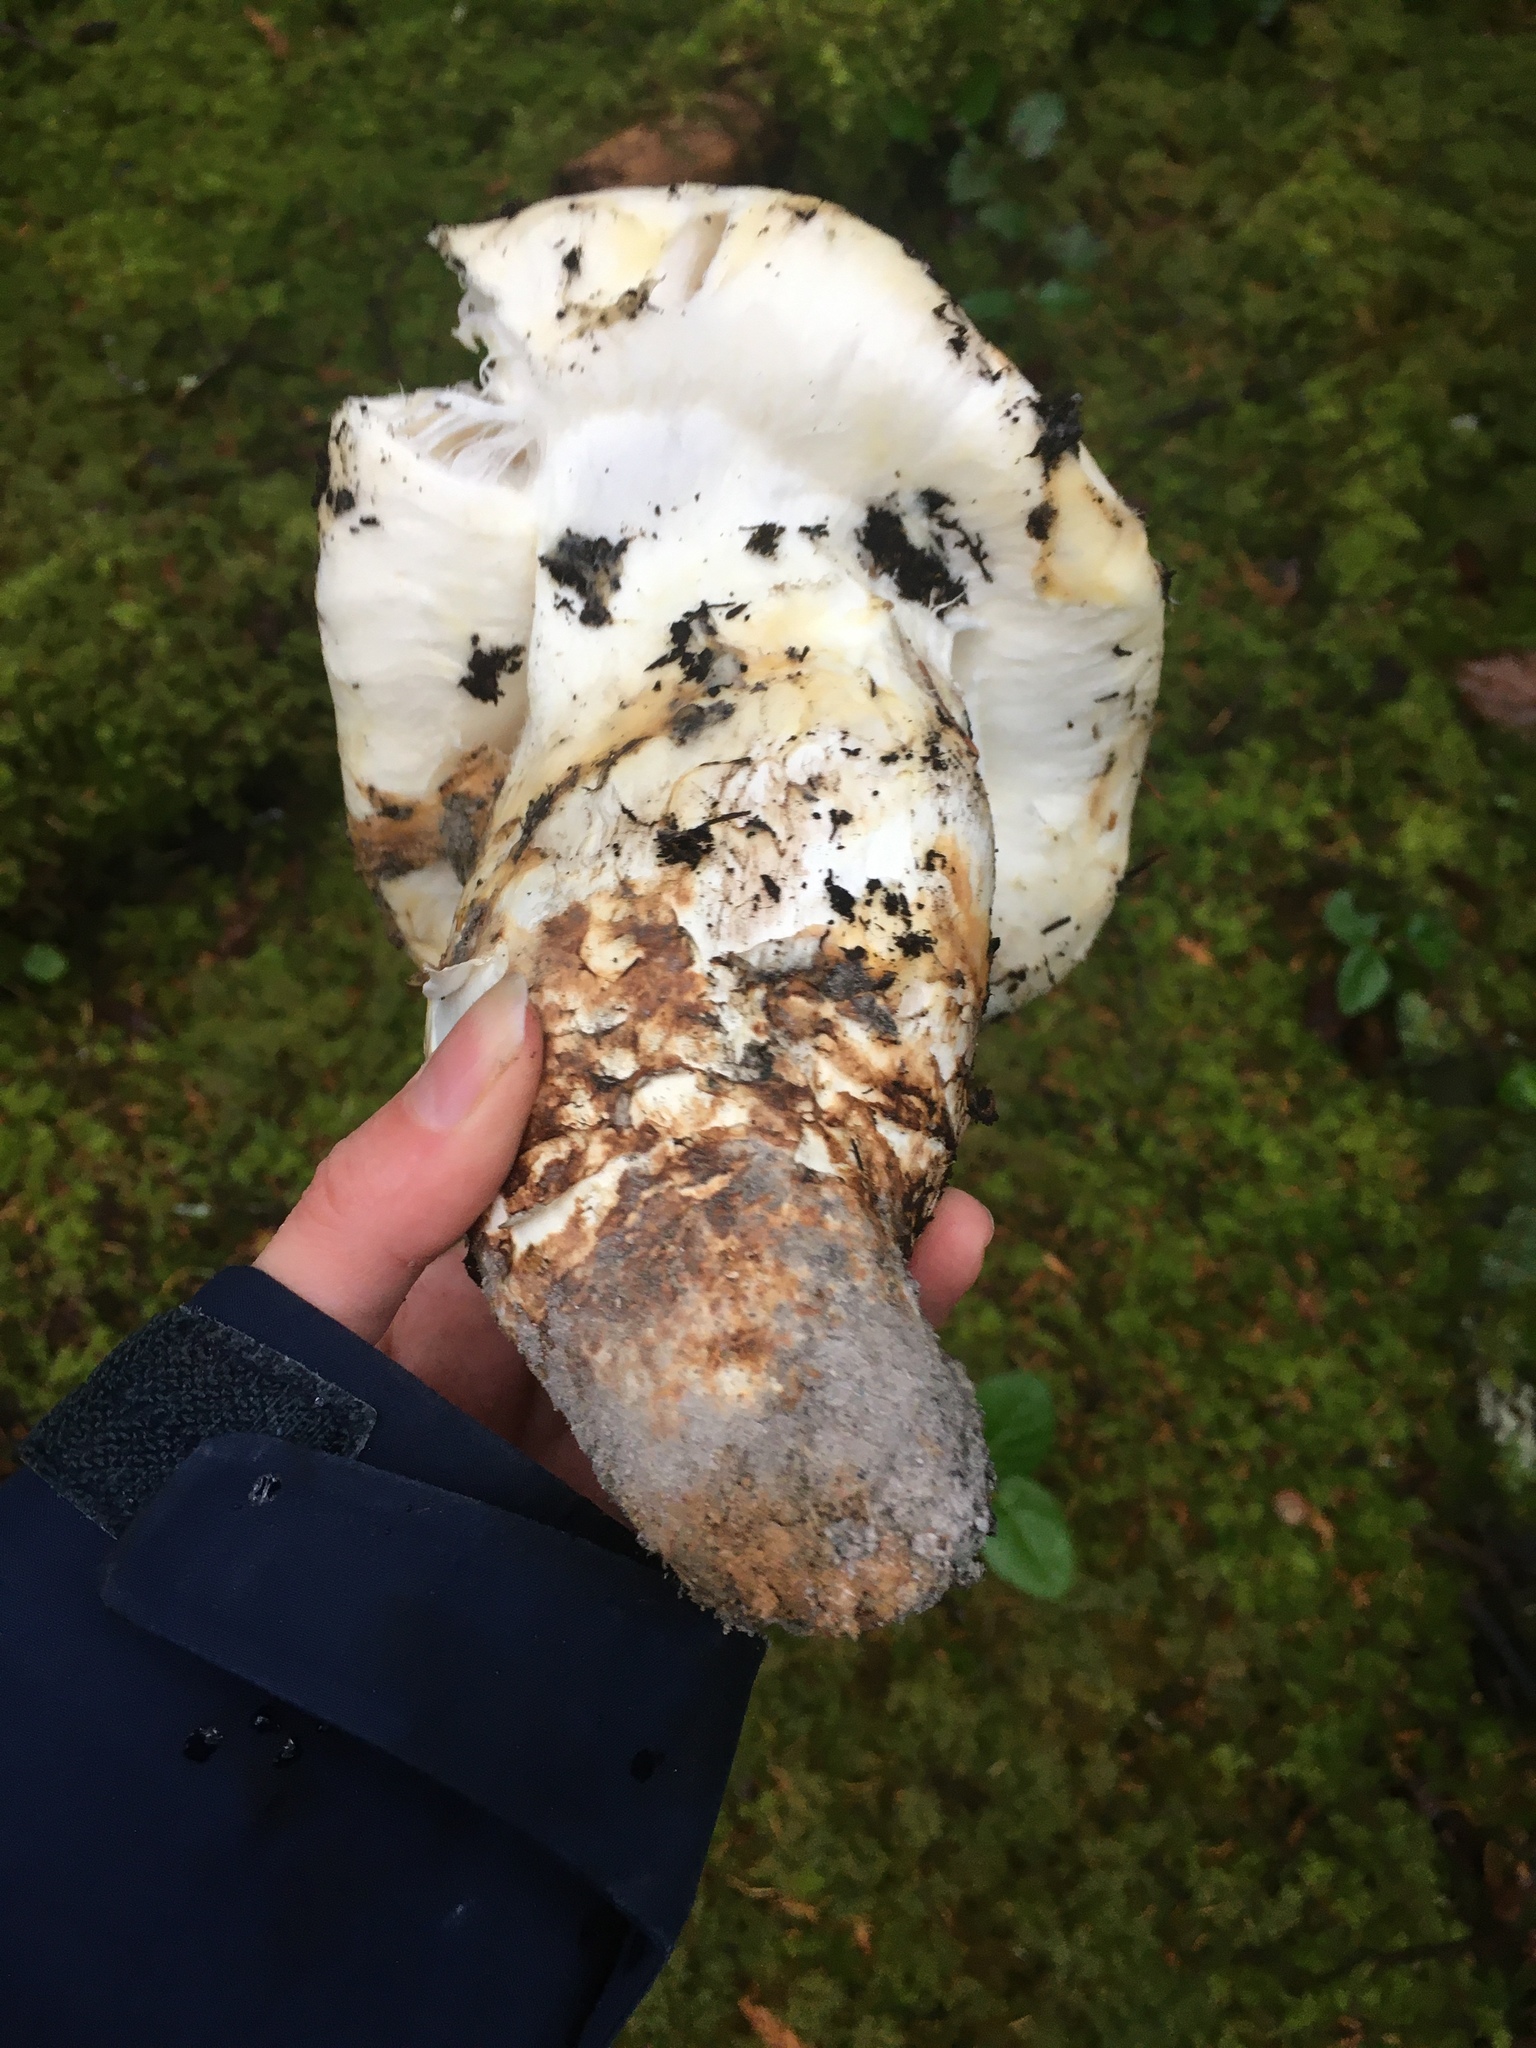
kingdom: Fungi
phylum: Basidiomycota
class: Agaricomycetes
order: Agaricales
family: Tricholomataceae
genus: Tricholoma
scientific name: Tricholoma murrillianum
